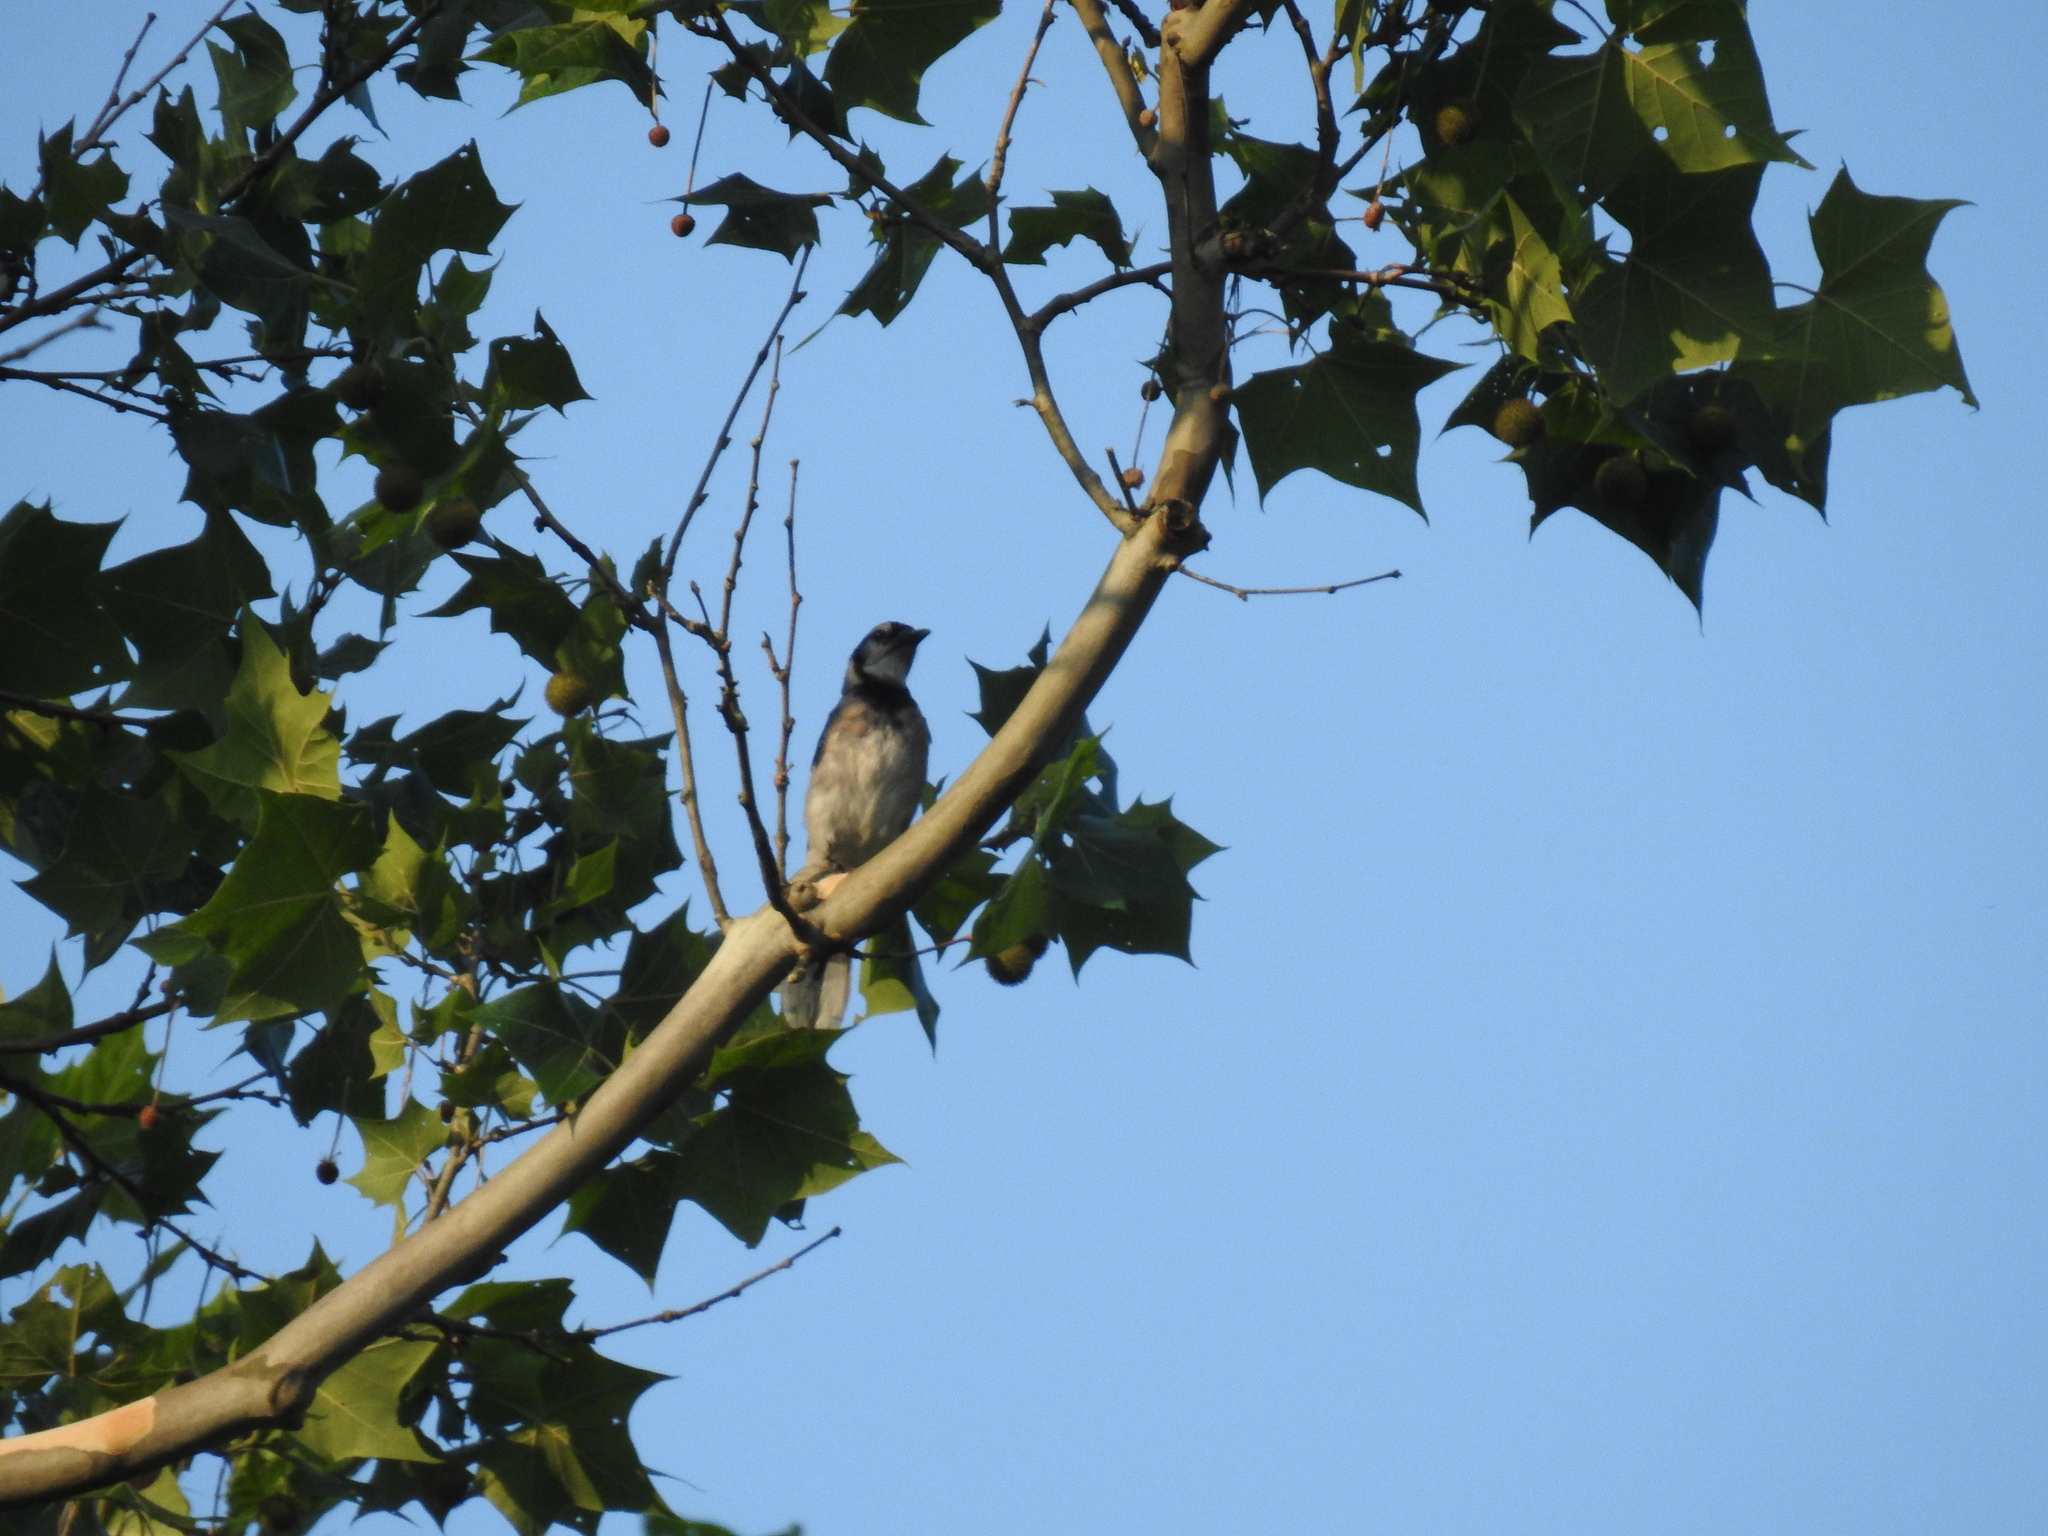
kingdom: Animalia
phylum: Chordata
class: Aves
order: Passeriformes
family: Corvidae
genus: Cyanocitta
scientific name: Cyanocitta cristata
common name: Blue jay
